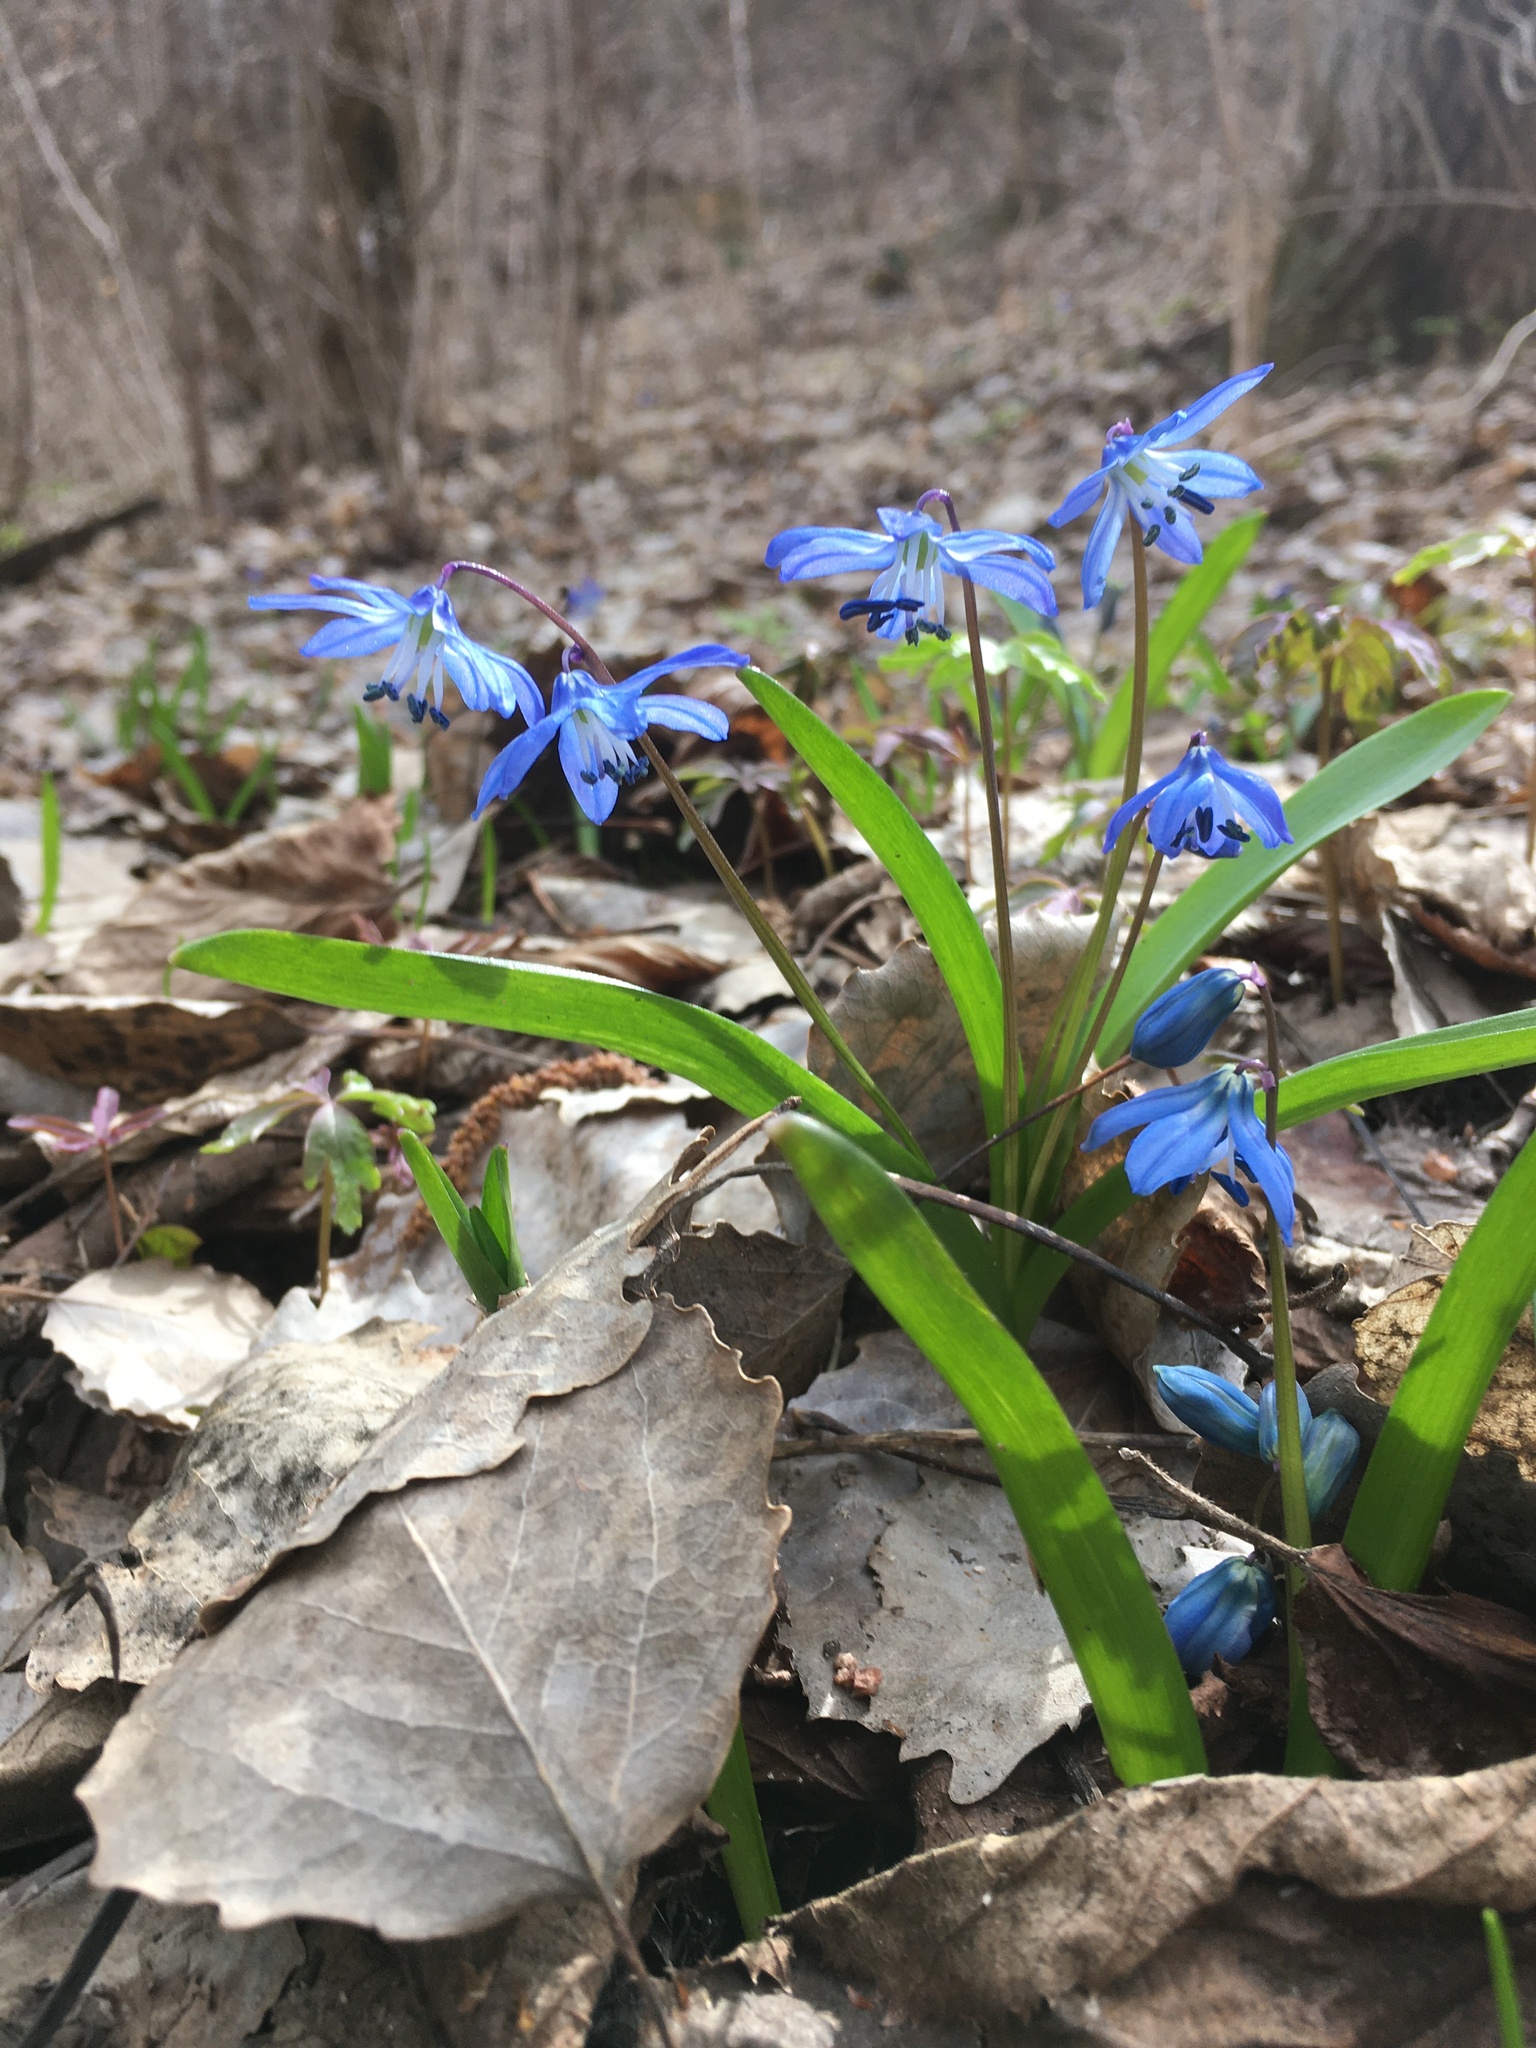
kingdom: Plantae
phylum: Tracheophyta
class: Liliopsida
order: Asparagales
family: Asparagaceae
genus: Scilla
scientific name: Scilla siberica
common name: Siberian squill
